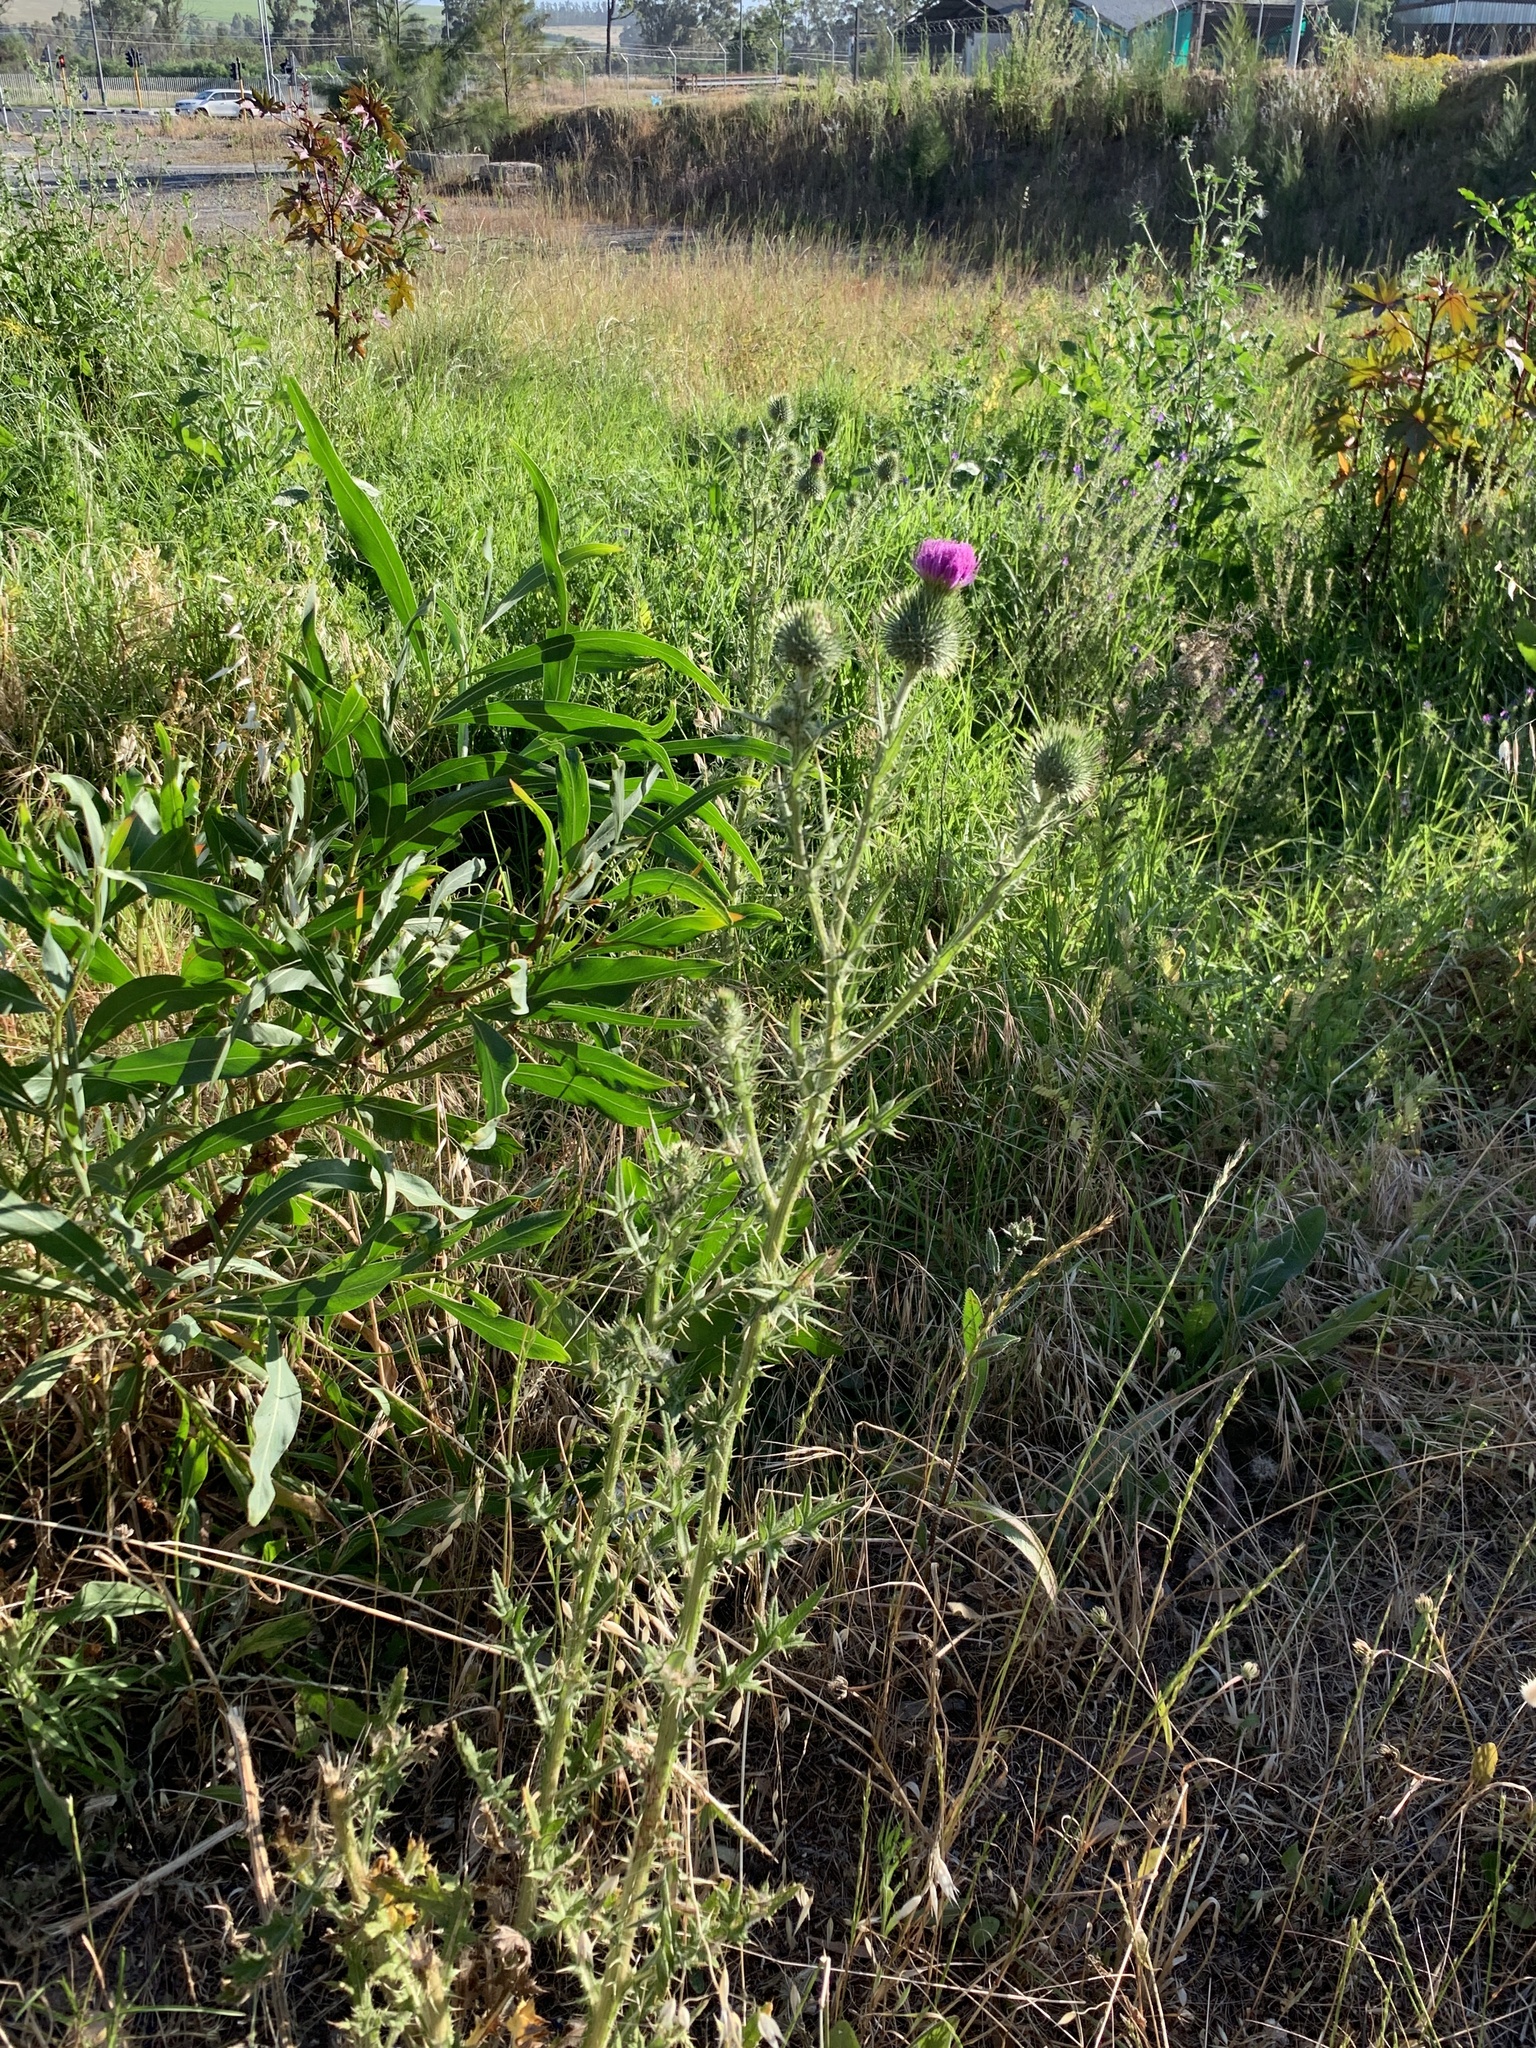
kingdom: Plantae
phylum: Tracheophyta
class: Magnoliopsida
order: Asterales
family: Asteraceae
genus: Cirsium
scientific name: Cirsium vulgare
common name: Bull thistle
